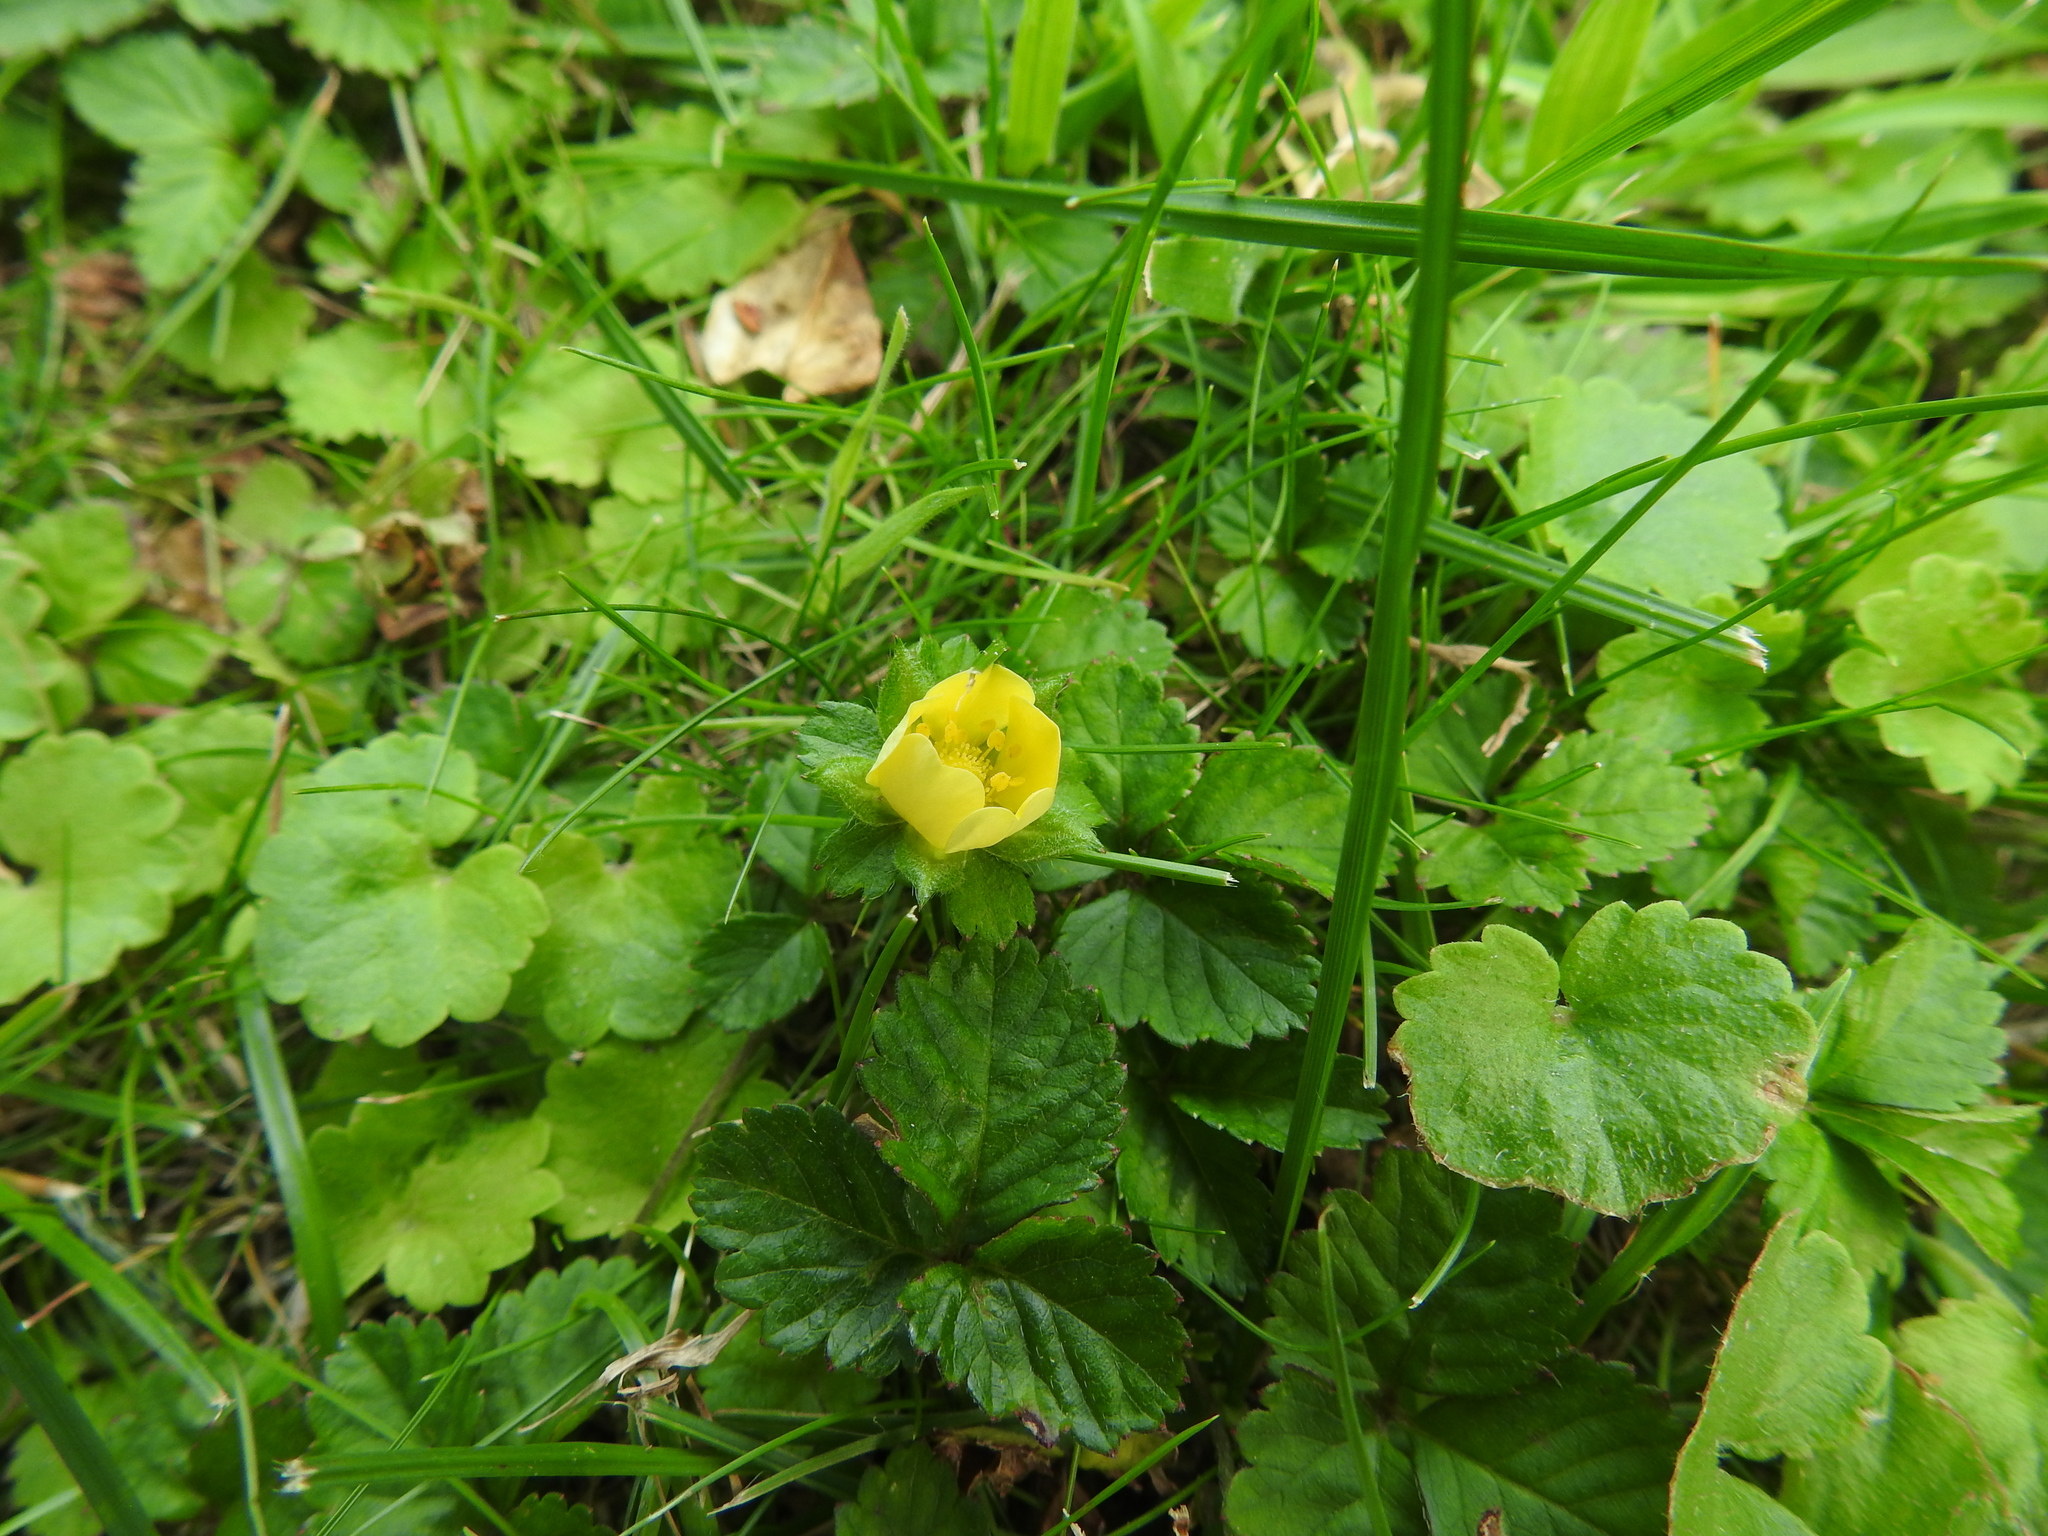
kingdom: Plantae
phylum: Tracheophyta
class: Magnoliopsida
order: Rosales
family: Rosaceae
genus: Potentilla
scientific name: Potentilla indica
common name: Yellow-flowered strawberry
